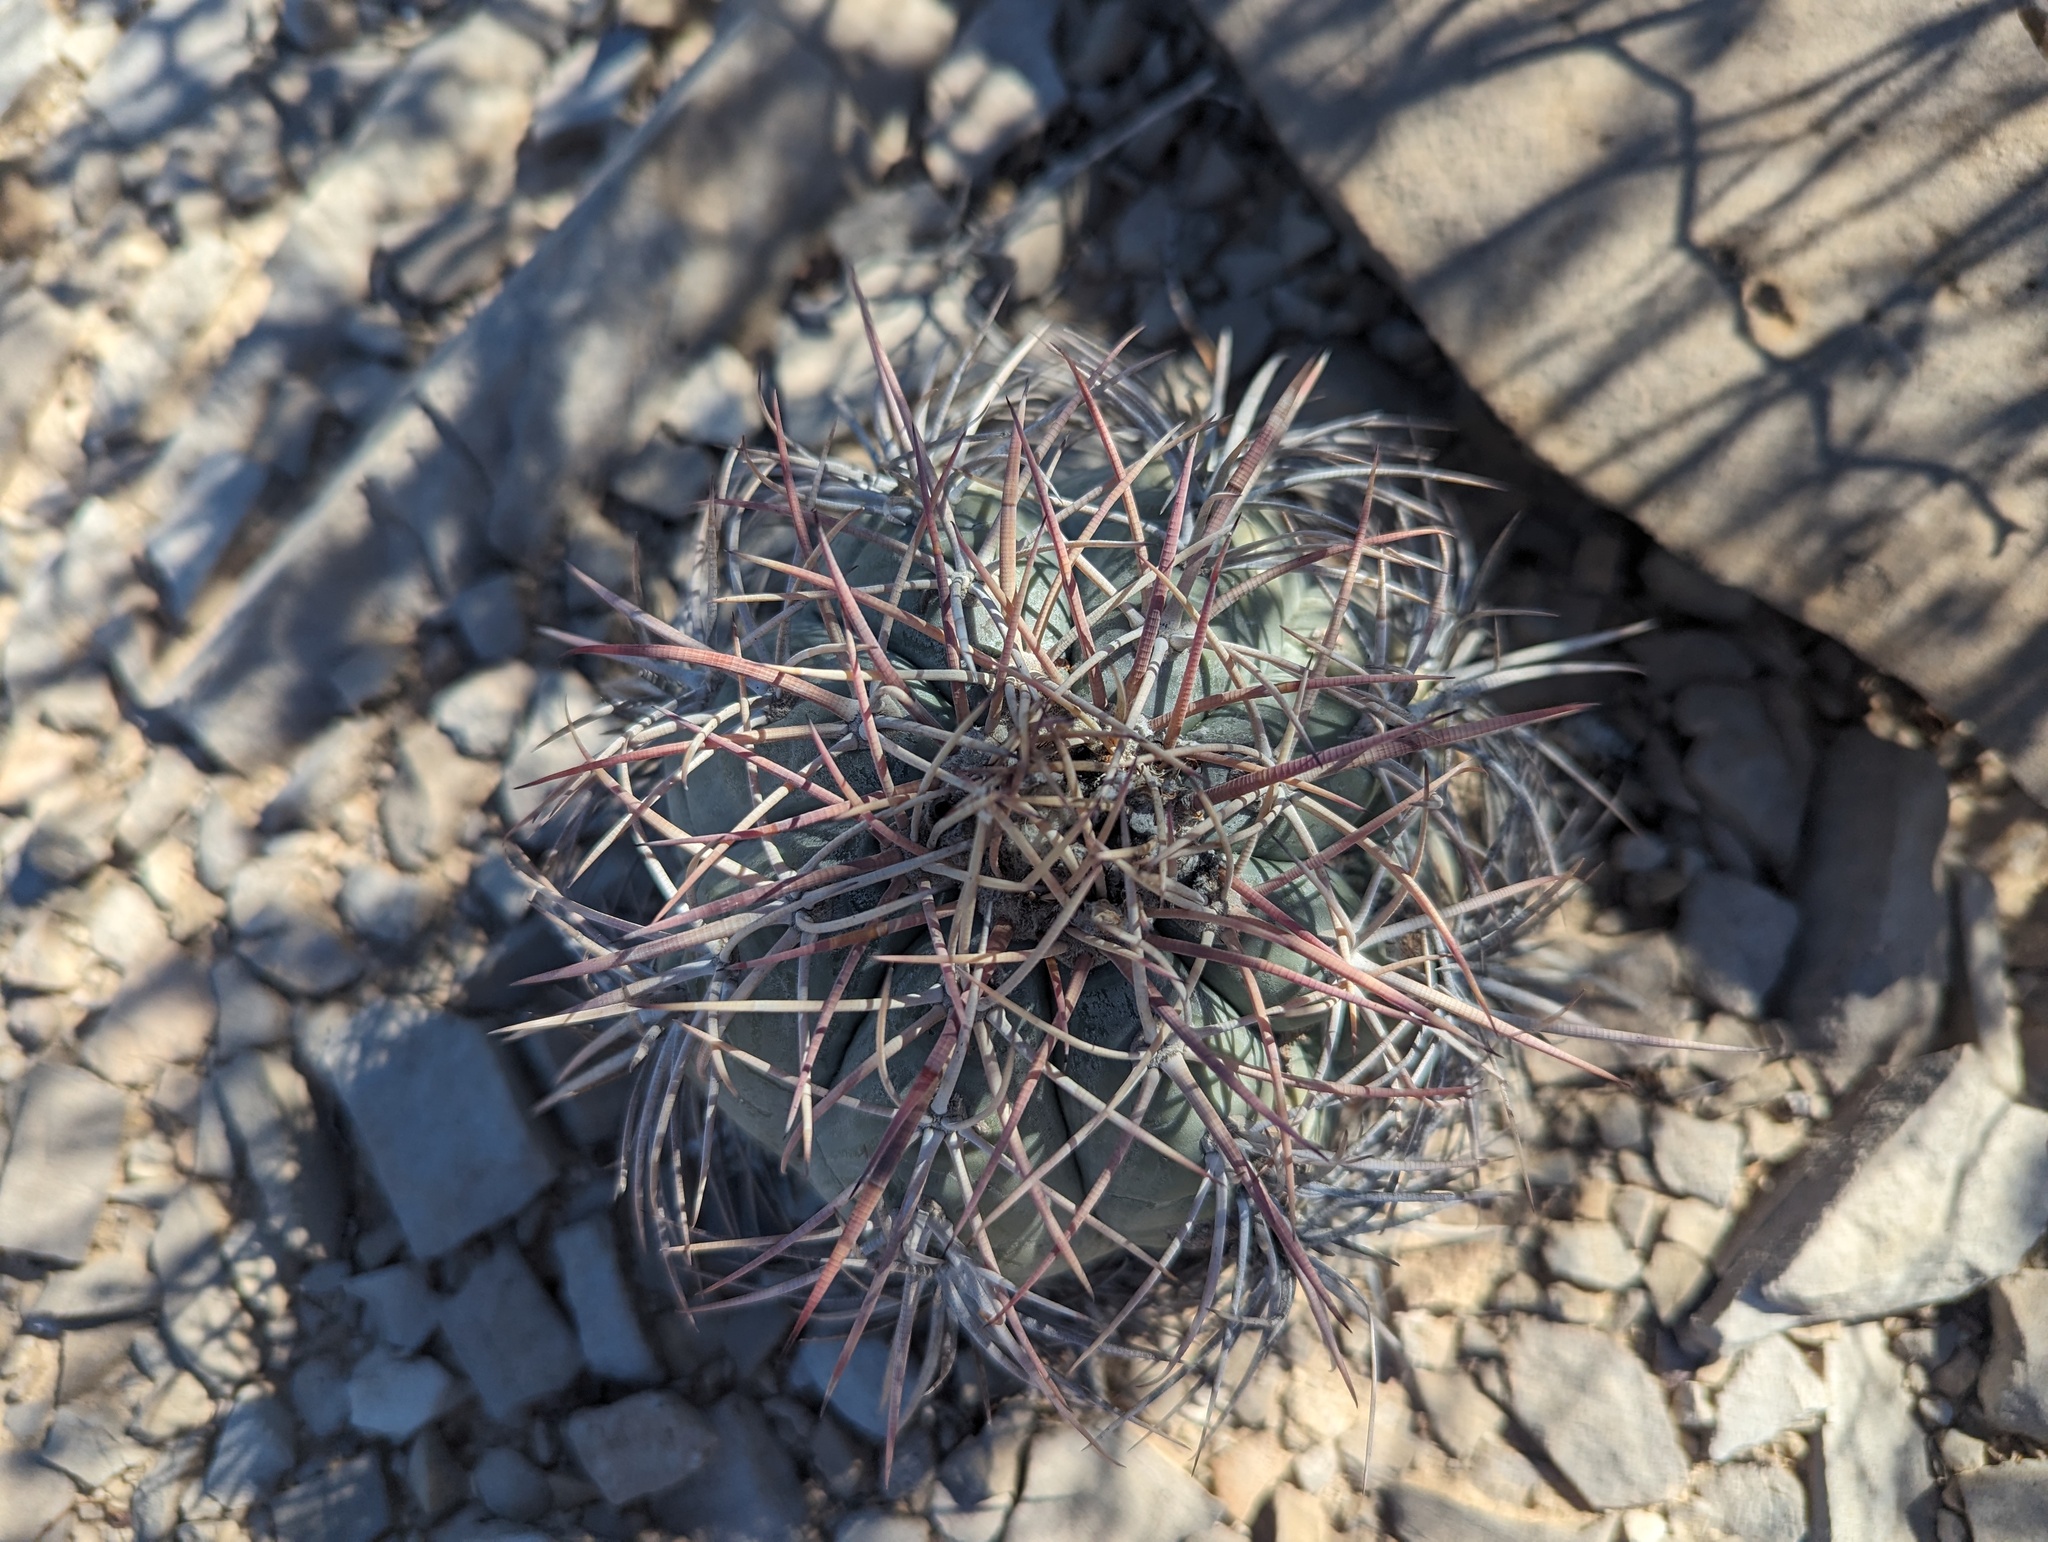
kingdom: Plantae
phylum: Tracheophyta
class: Magnoliopsida
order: Caryophyllales
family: Cactaceae
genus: Echinocactus
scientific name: Echinocactus horizonthalonius
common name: Devilshead
